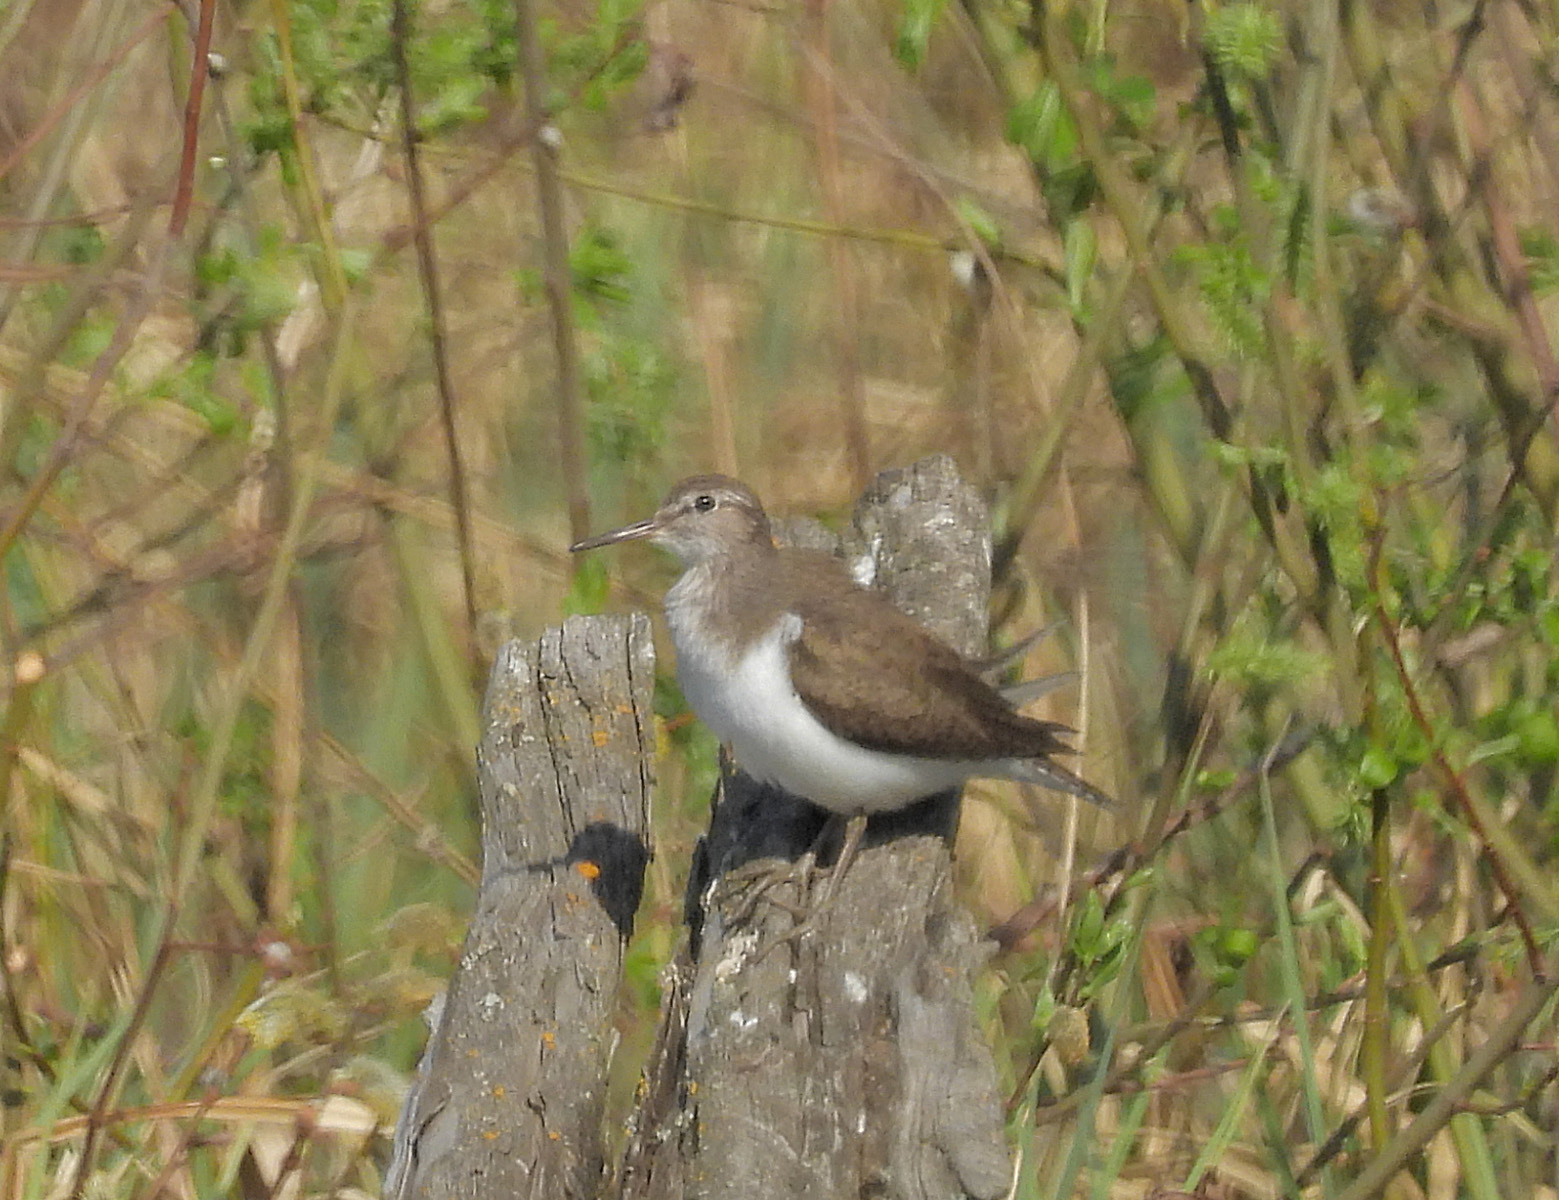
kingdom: Animalia
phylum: Chordata
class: Aves
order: Charadriiformes
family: Scolopacidae
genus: Actitis
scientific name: Actitis hypoleucos
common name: Common sandpiper
